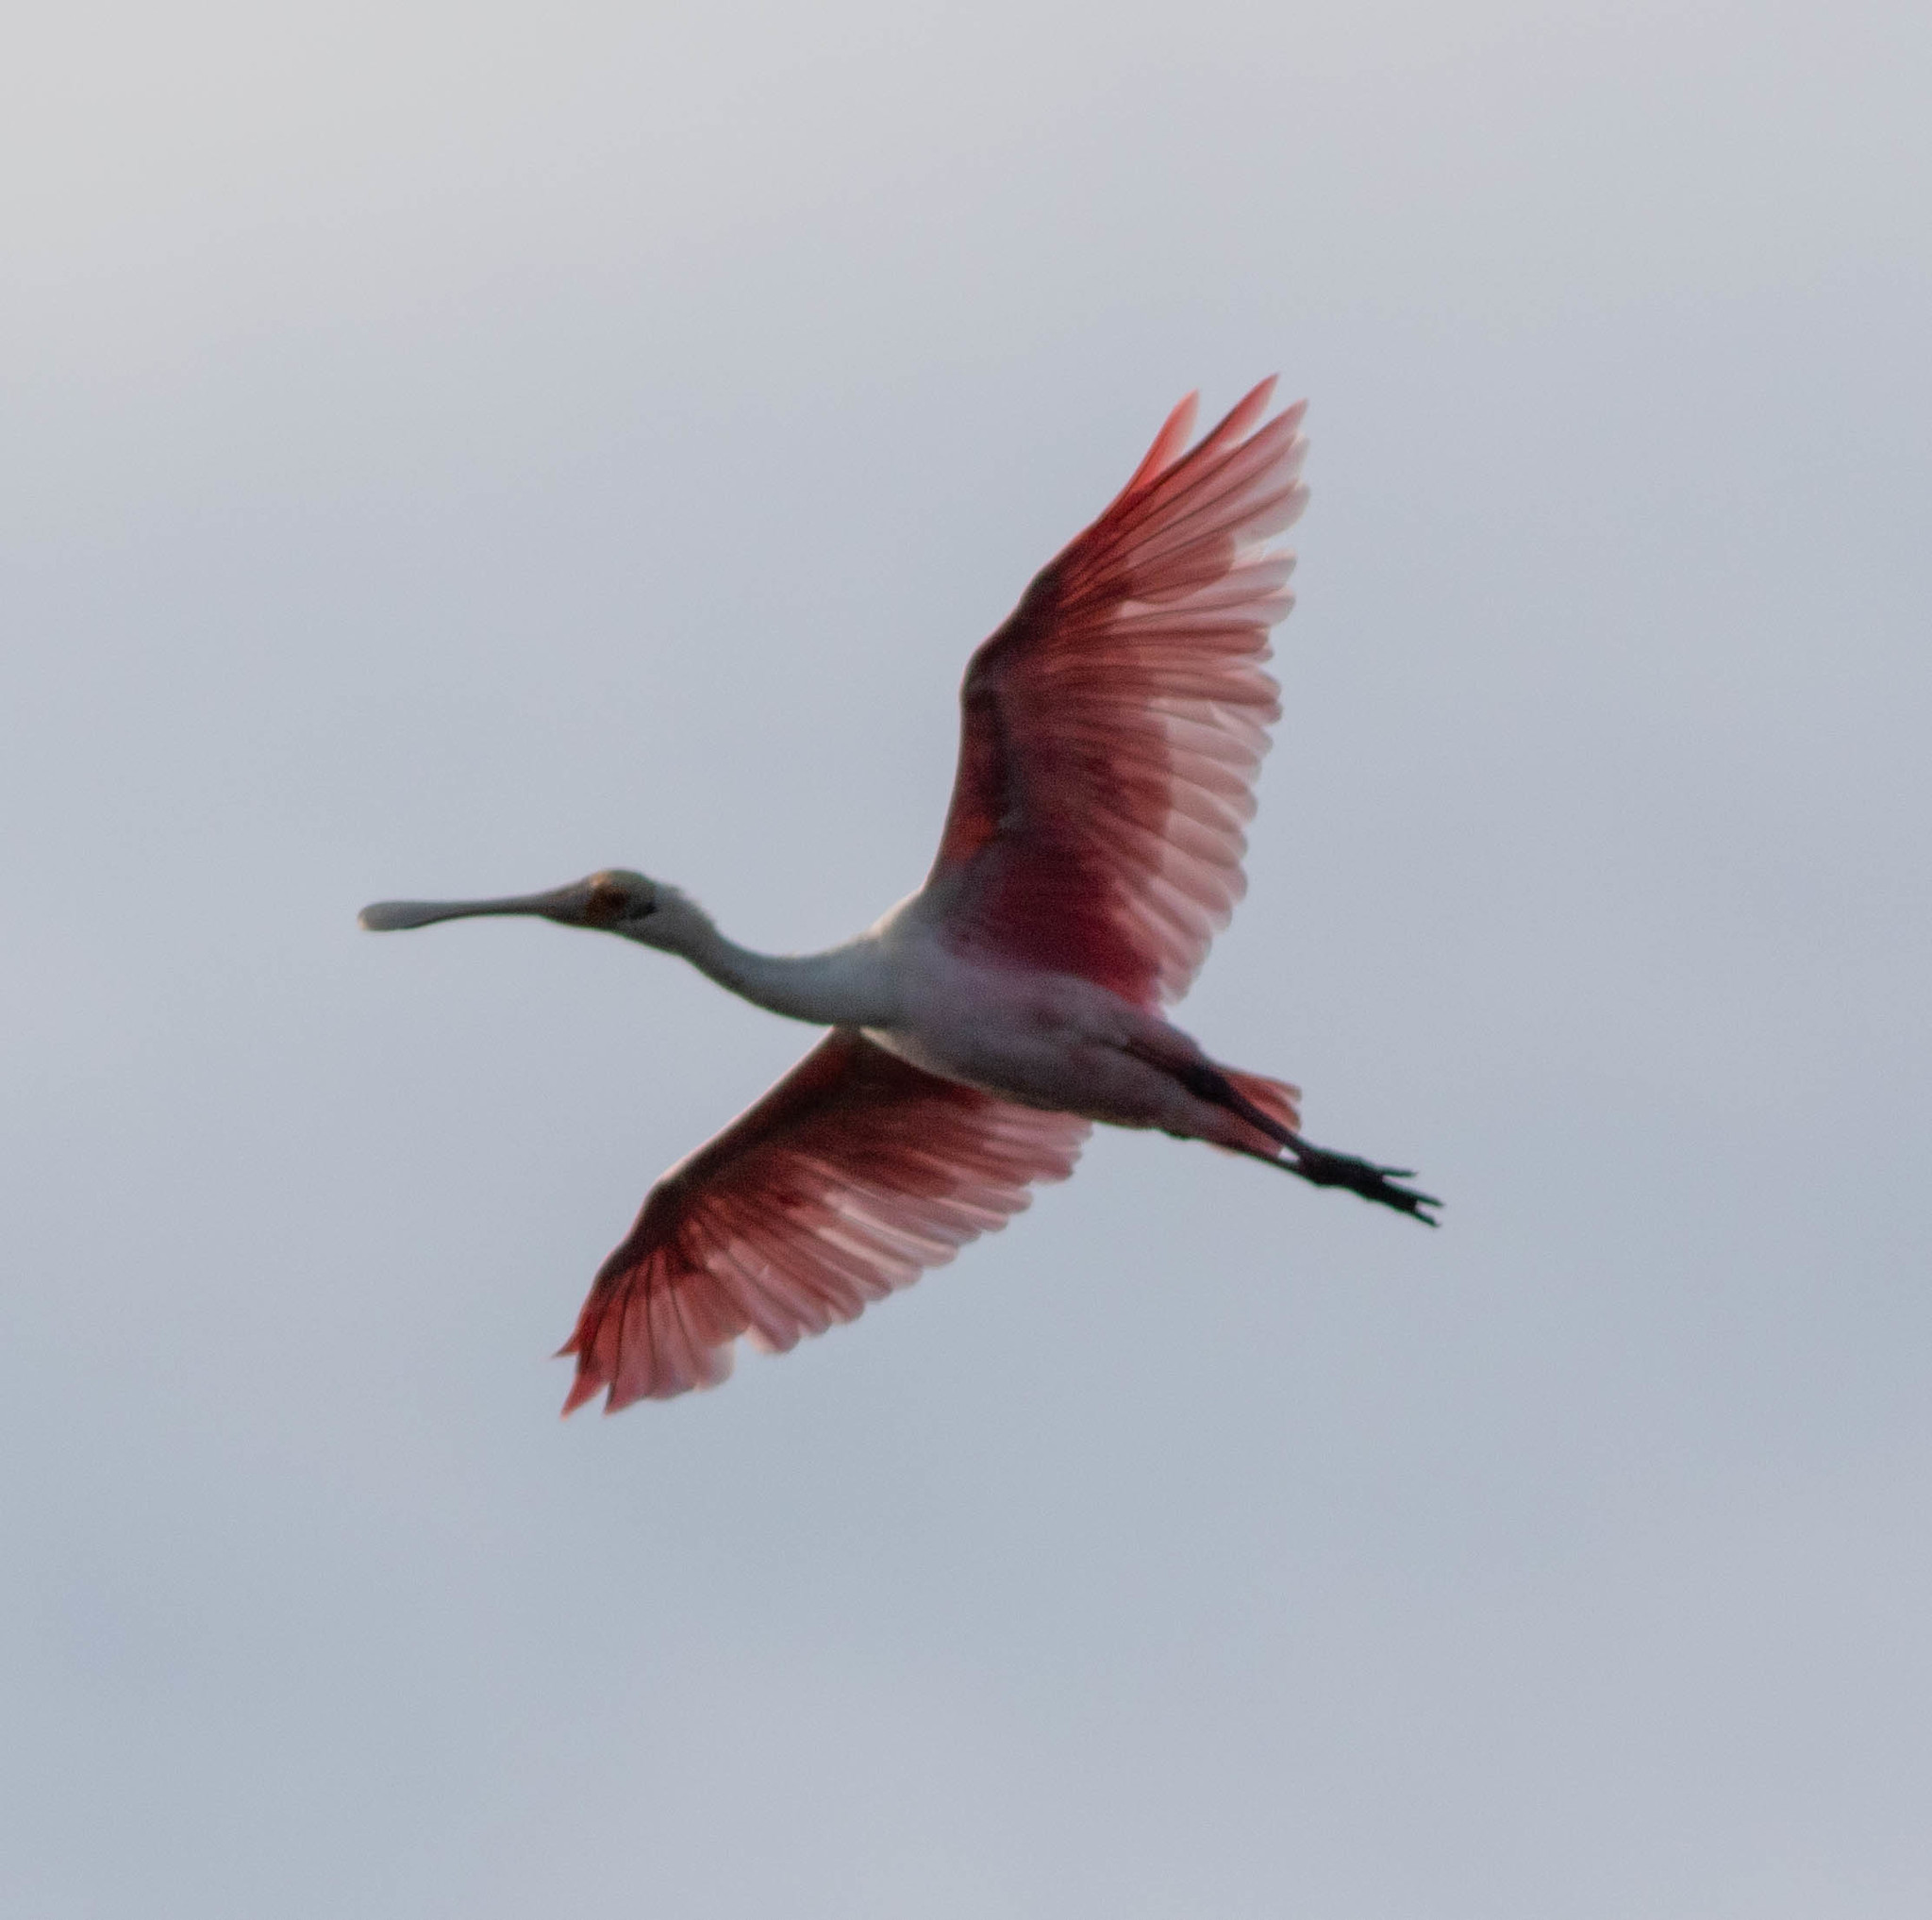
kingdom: Animalia
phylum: Chordata
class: Aves
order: Pelecaniformes
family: Threskiornithidae
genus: Platalea
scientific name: Platalea ajaja
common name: Roseate spoonbill
